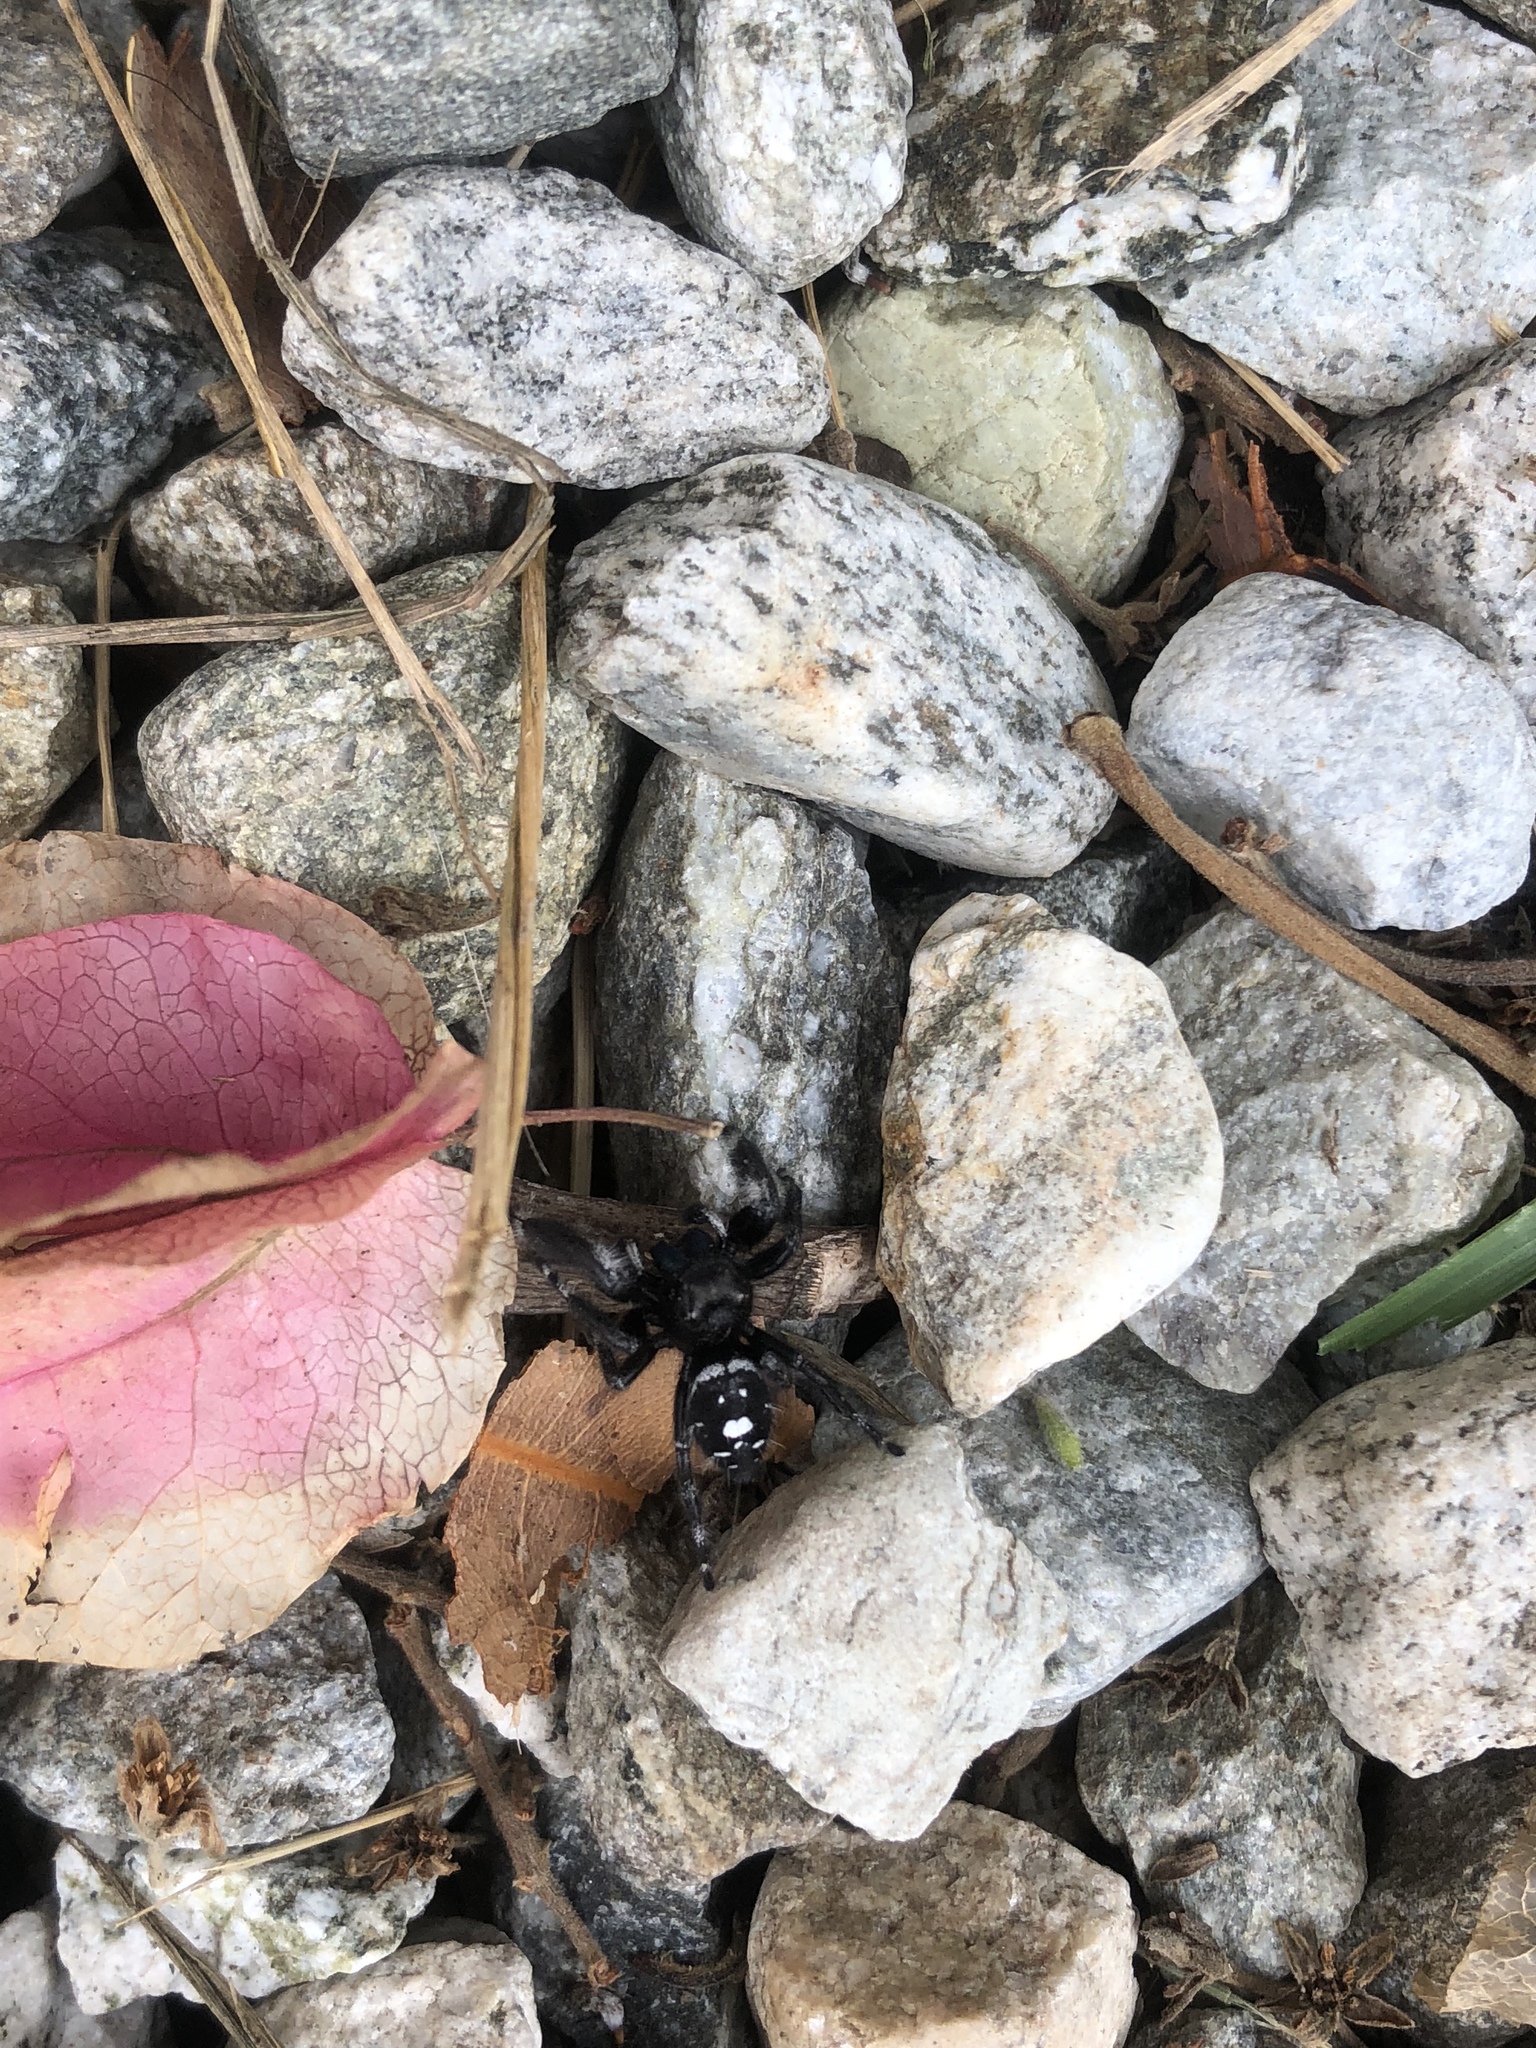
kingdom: Animalia
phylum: Arthropoda
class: Arachnida
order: Araneae
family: Salticidae
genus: Phidippus
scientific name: Phidippus audax
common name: Bold jumper
